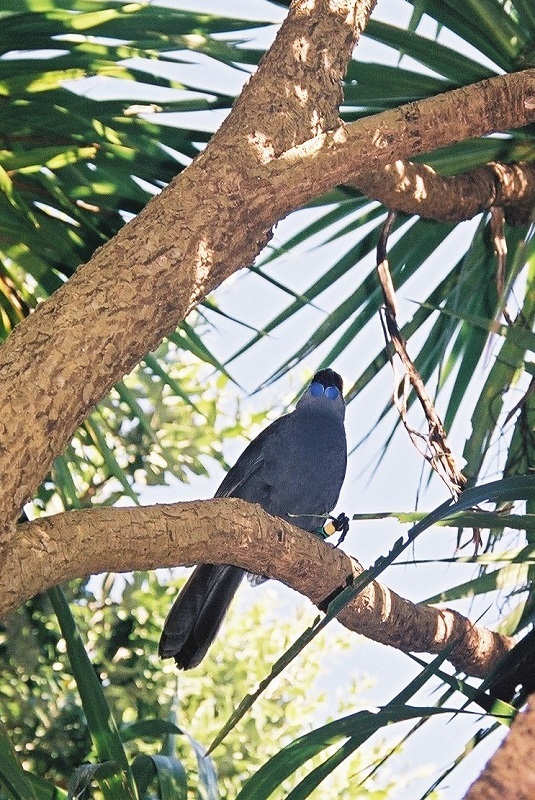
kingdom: Animalia
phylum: Chordata
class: Aves
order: Passeriformes
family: Callaeatidae
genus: Callaeas
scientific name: Callaeas cinereus
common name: South island kokako
